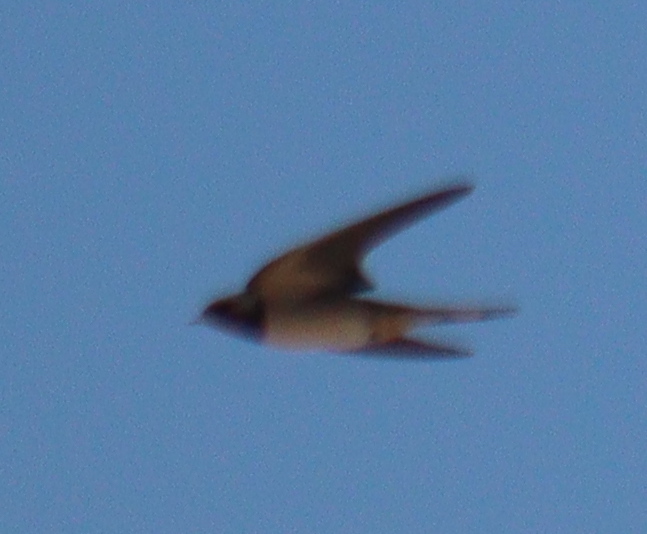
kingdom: Animalia
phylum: Chordata
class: Aves
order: Passeriformes
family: Hirundinidae
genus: Hirundo
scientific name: Hirundo rustica
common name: Barn swallow
